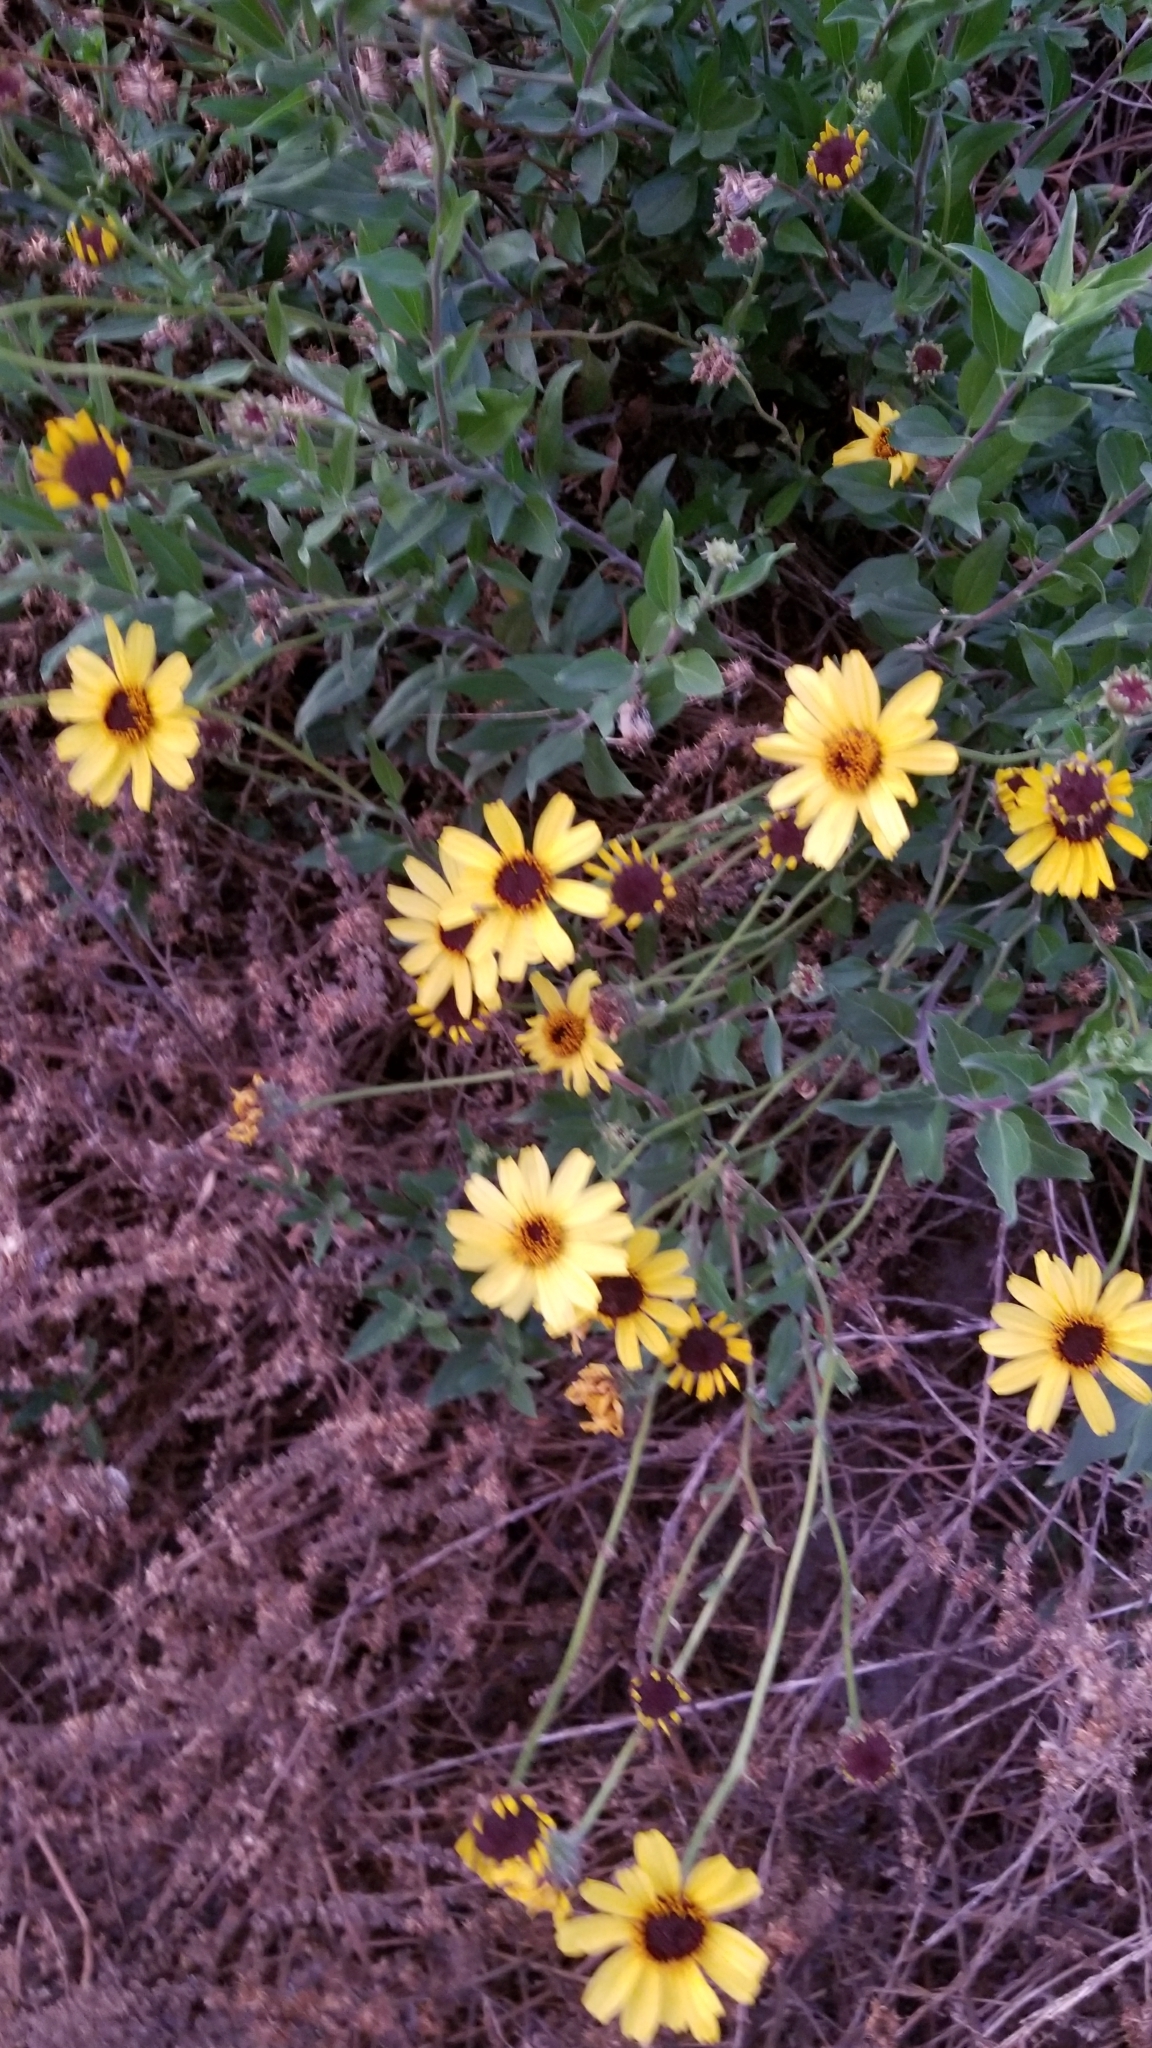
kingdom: Plantae
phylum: Tracheophyta
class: Magnoliopsida
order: Asterales
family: Asteraceae
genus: Encelia
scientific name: Encelia californica
